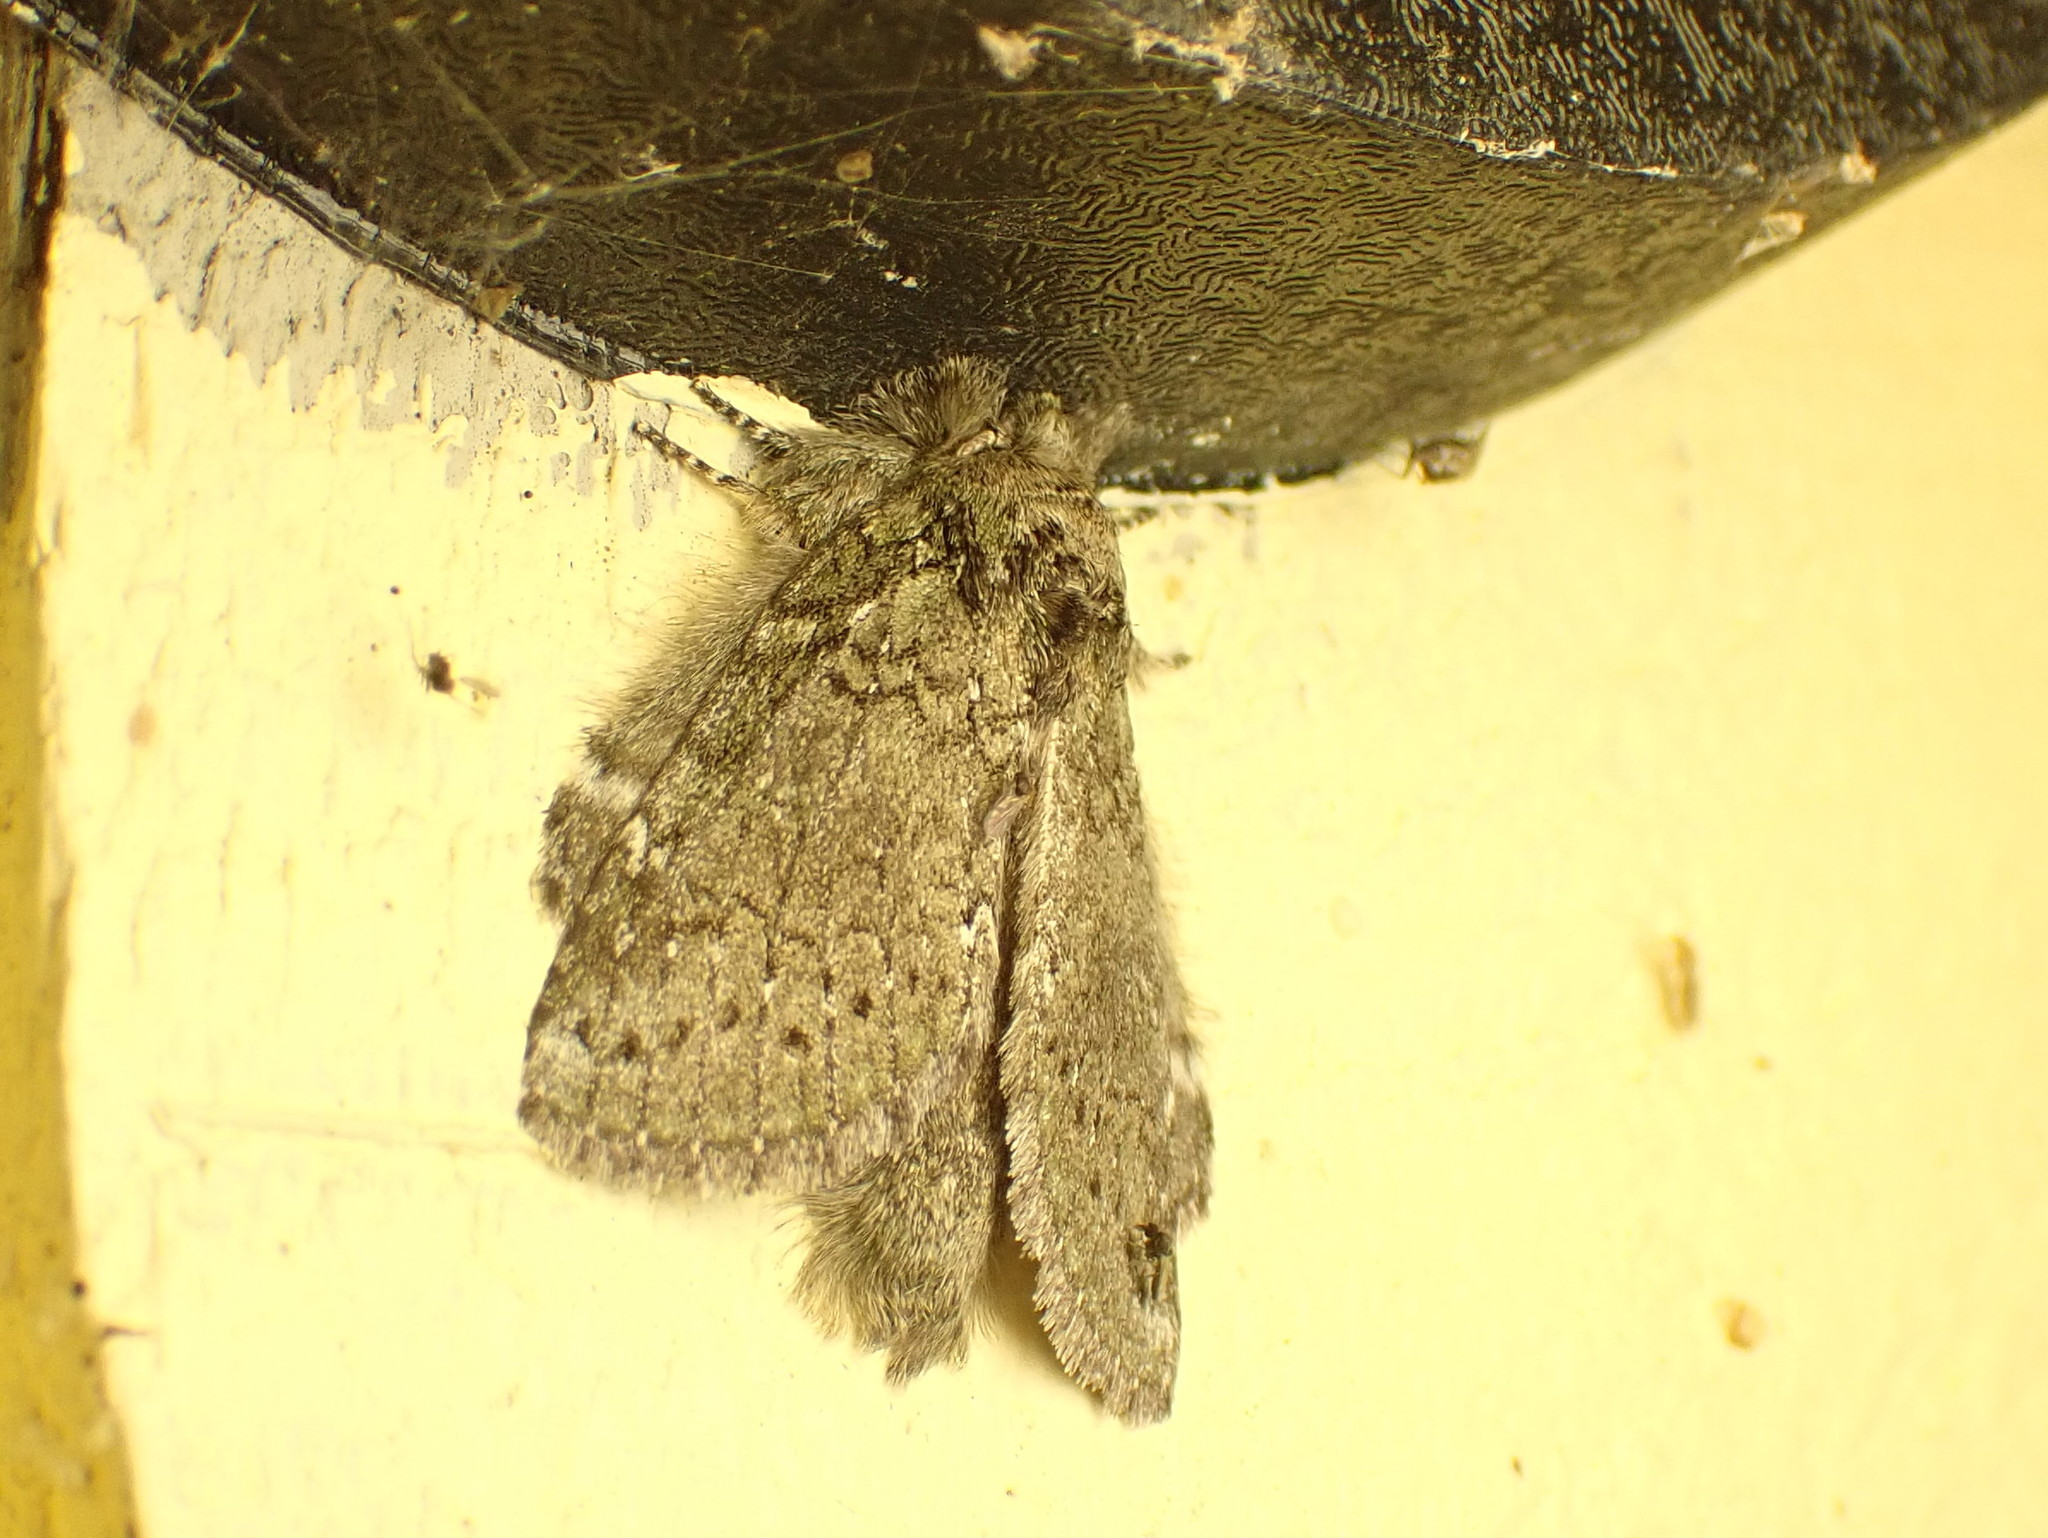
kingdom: Animalia
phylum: Arthropoda
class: Insecta
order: Lepidoptera
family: Notodontidae
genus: Disphragis
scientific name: Disphragis Cecrita guttivitta
